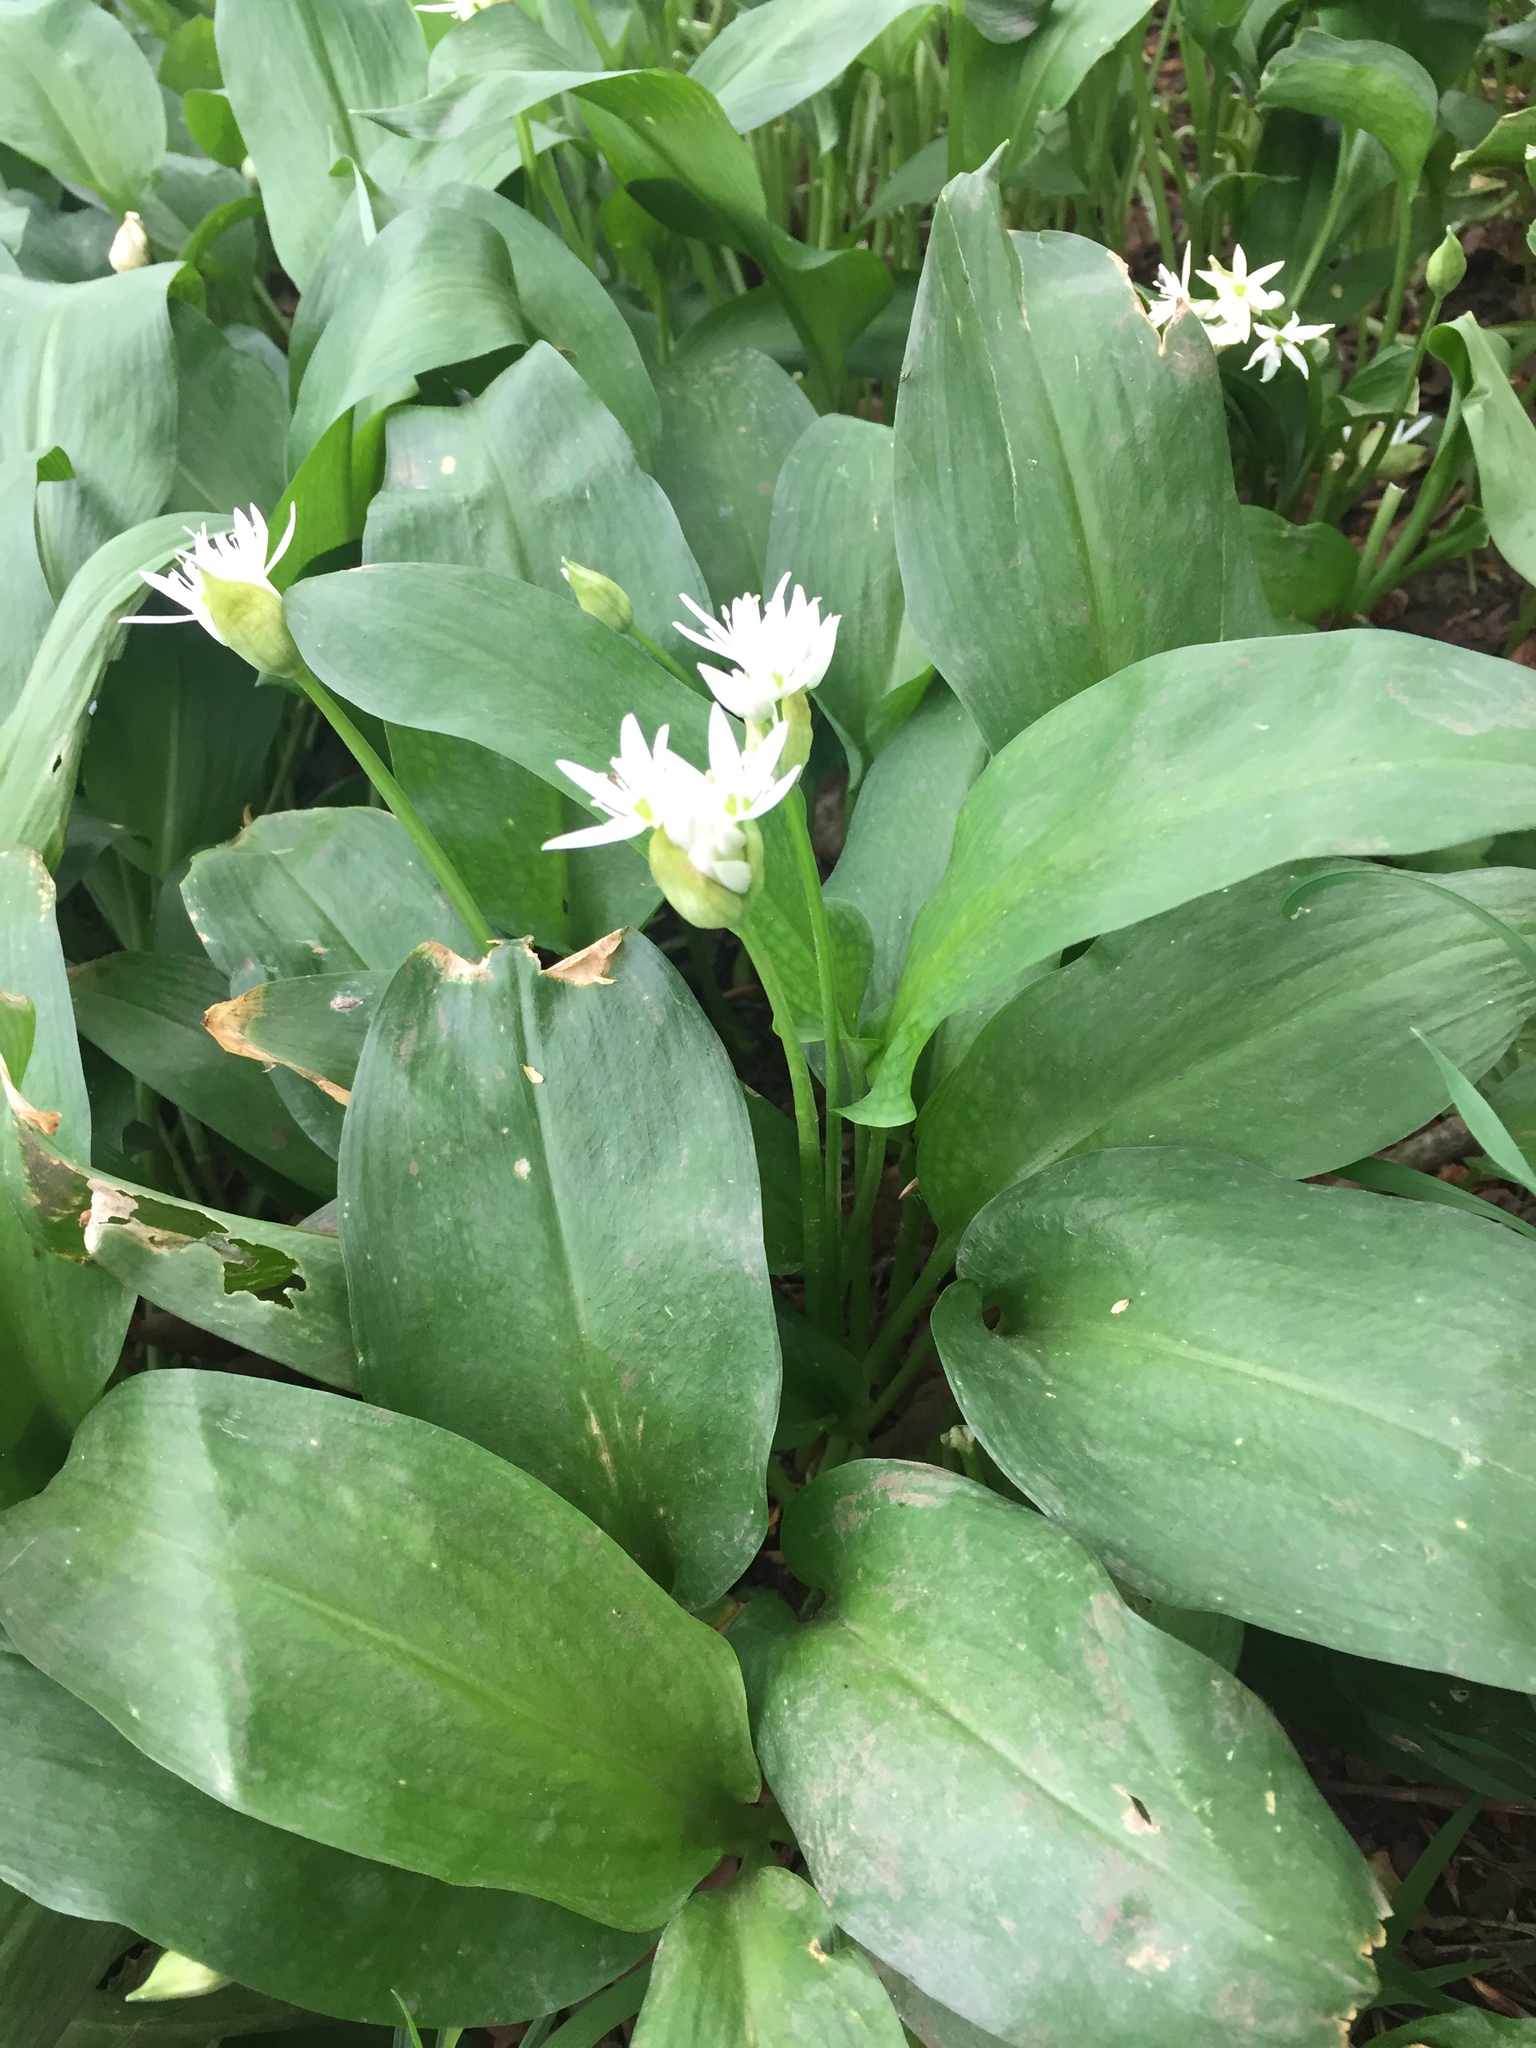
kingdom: Plantae
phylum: Tracheophyta
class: Liliopsida
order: Asparagales
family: Amaryllidaceae
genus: Allium
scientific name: Allium ursinum
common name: Ramsons
